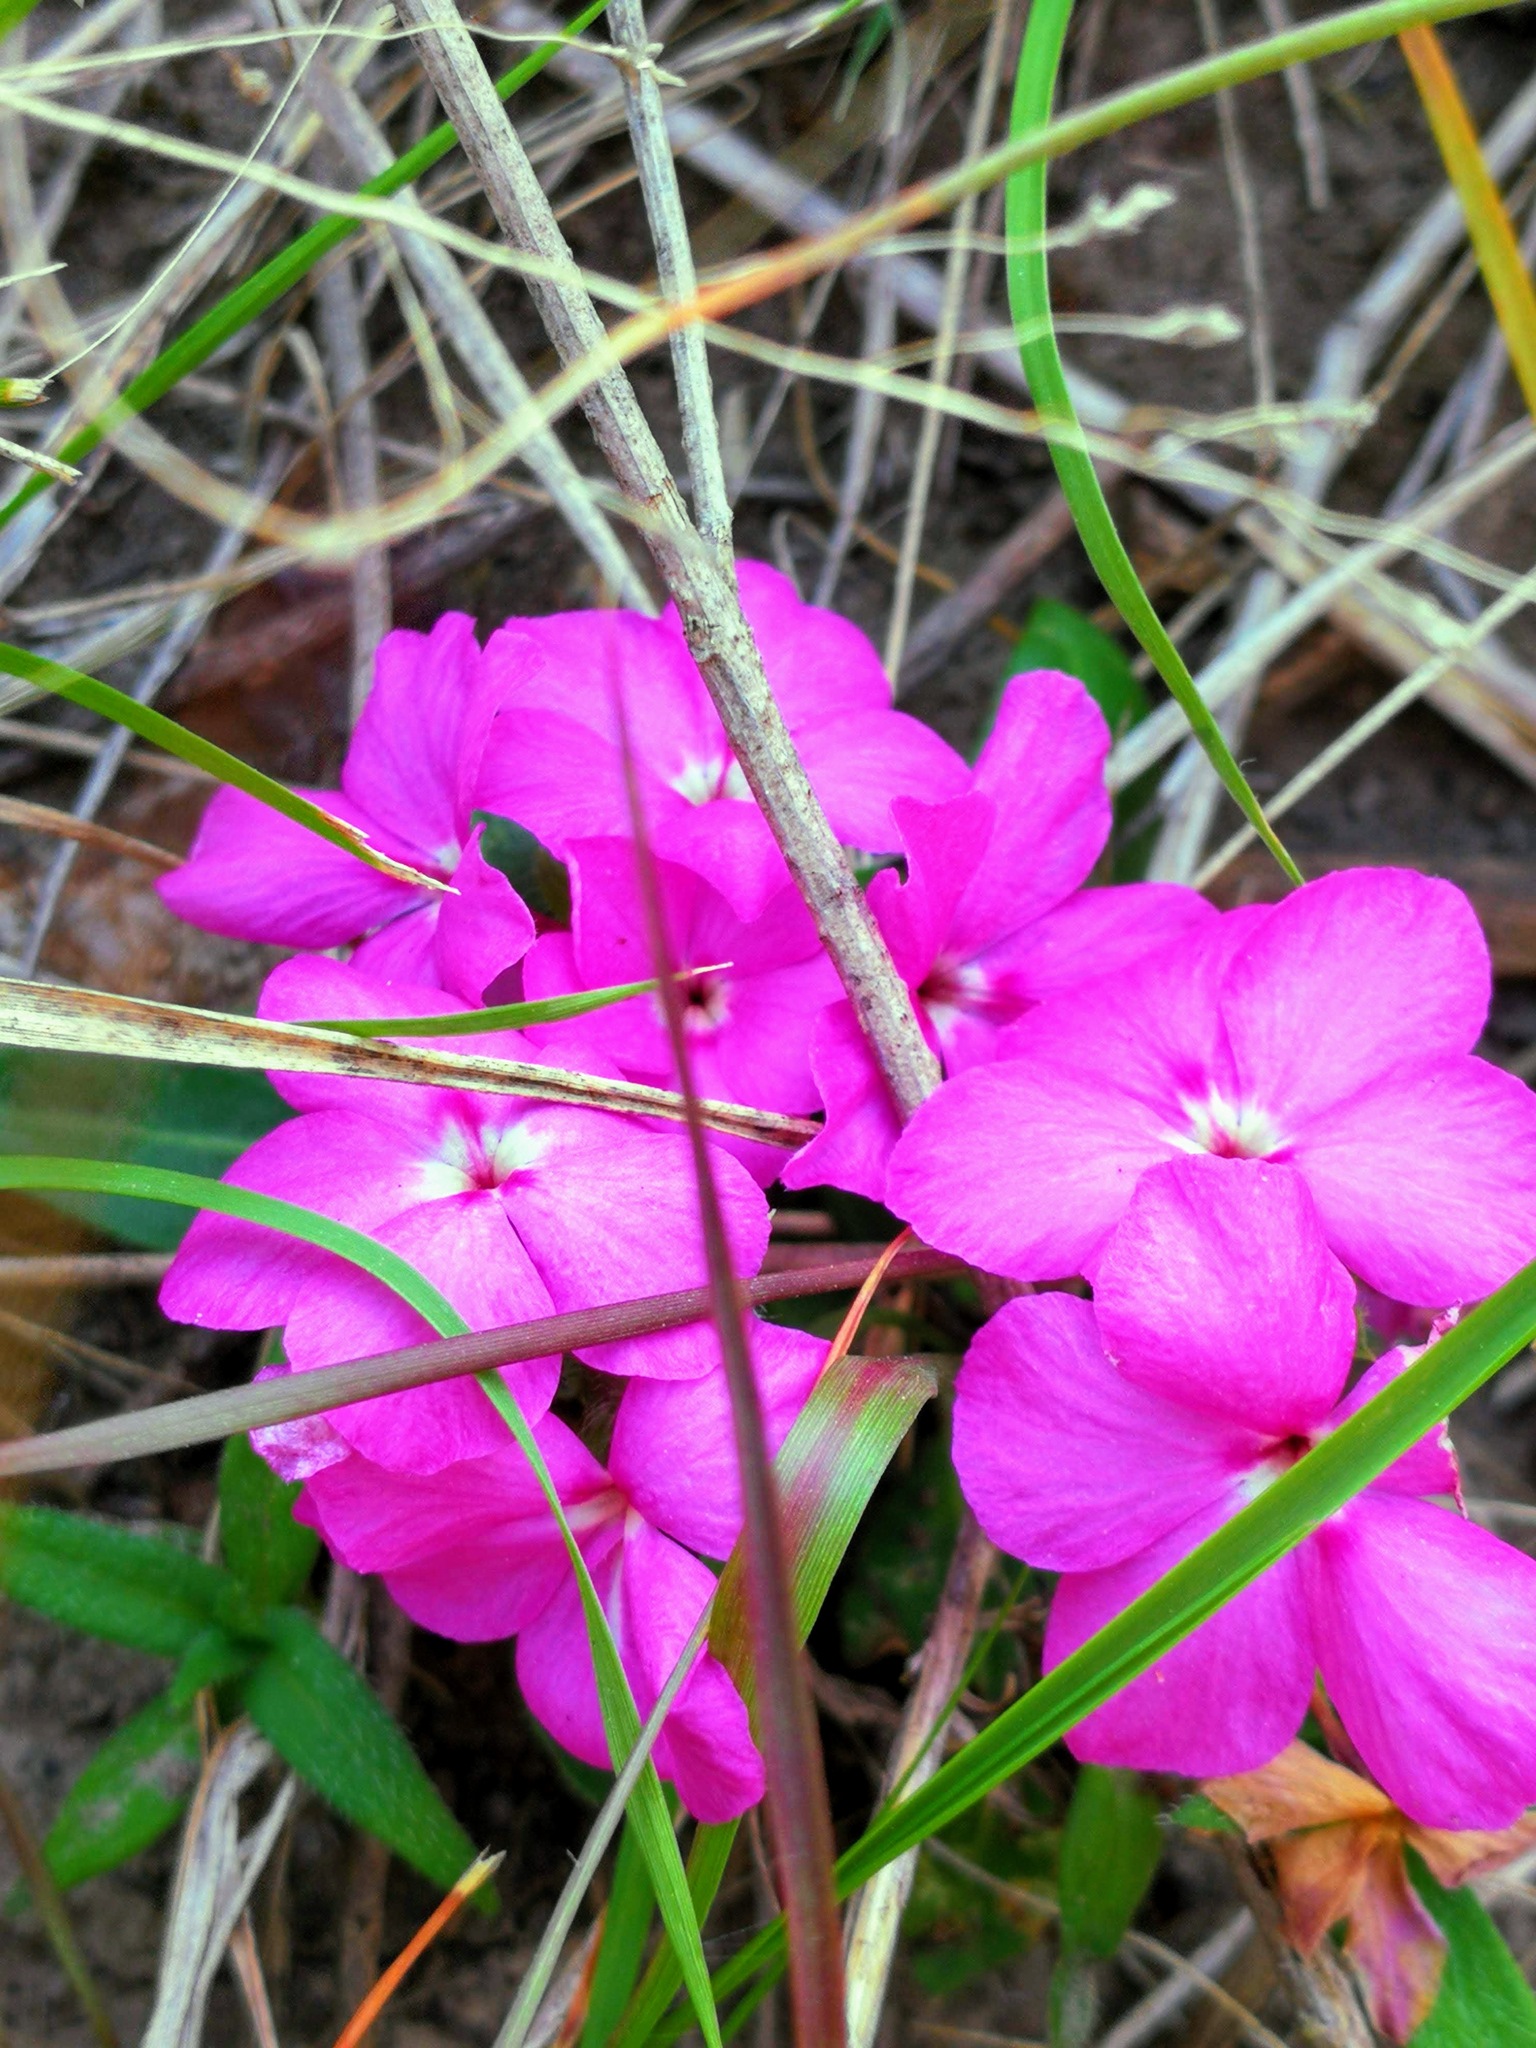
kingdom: Plantae
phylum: Tracheophyta
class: Magnoliopsida
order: Lamiales
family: Acanthaceae
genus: Stenandrium
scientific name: Stenandrium dulce
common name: Pinklet
